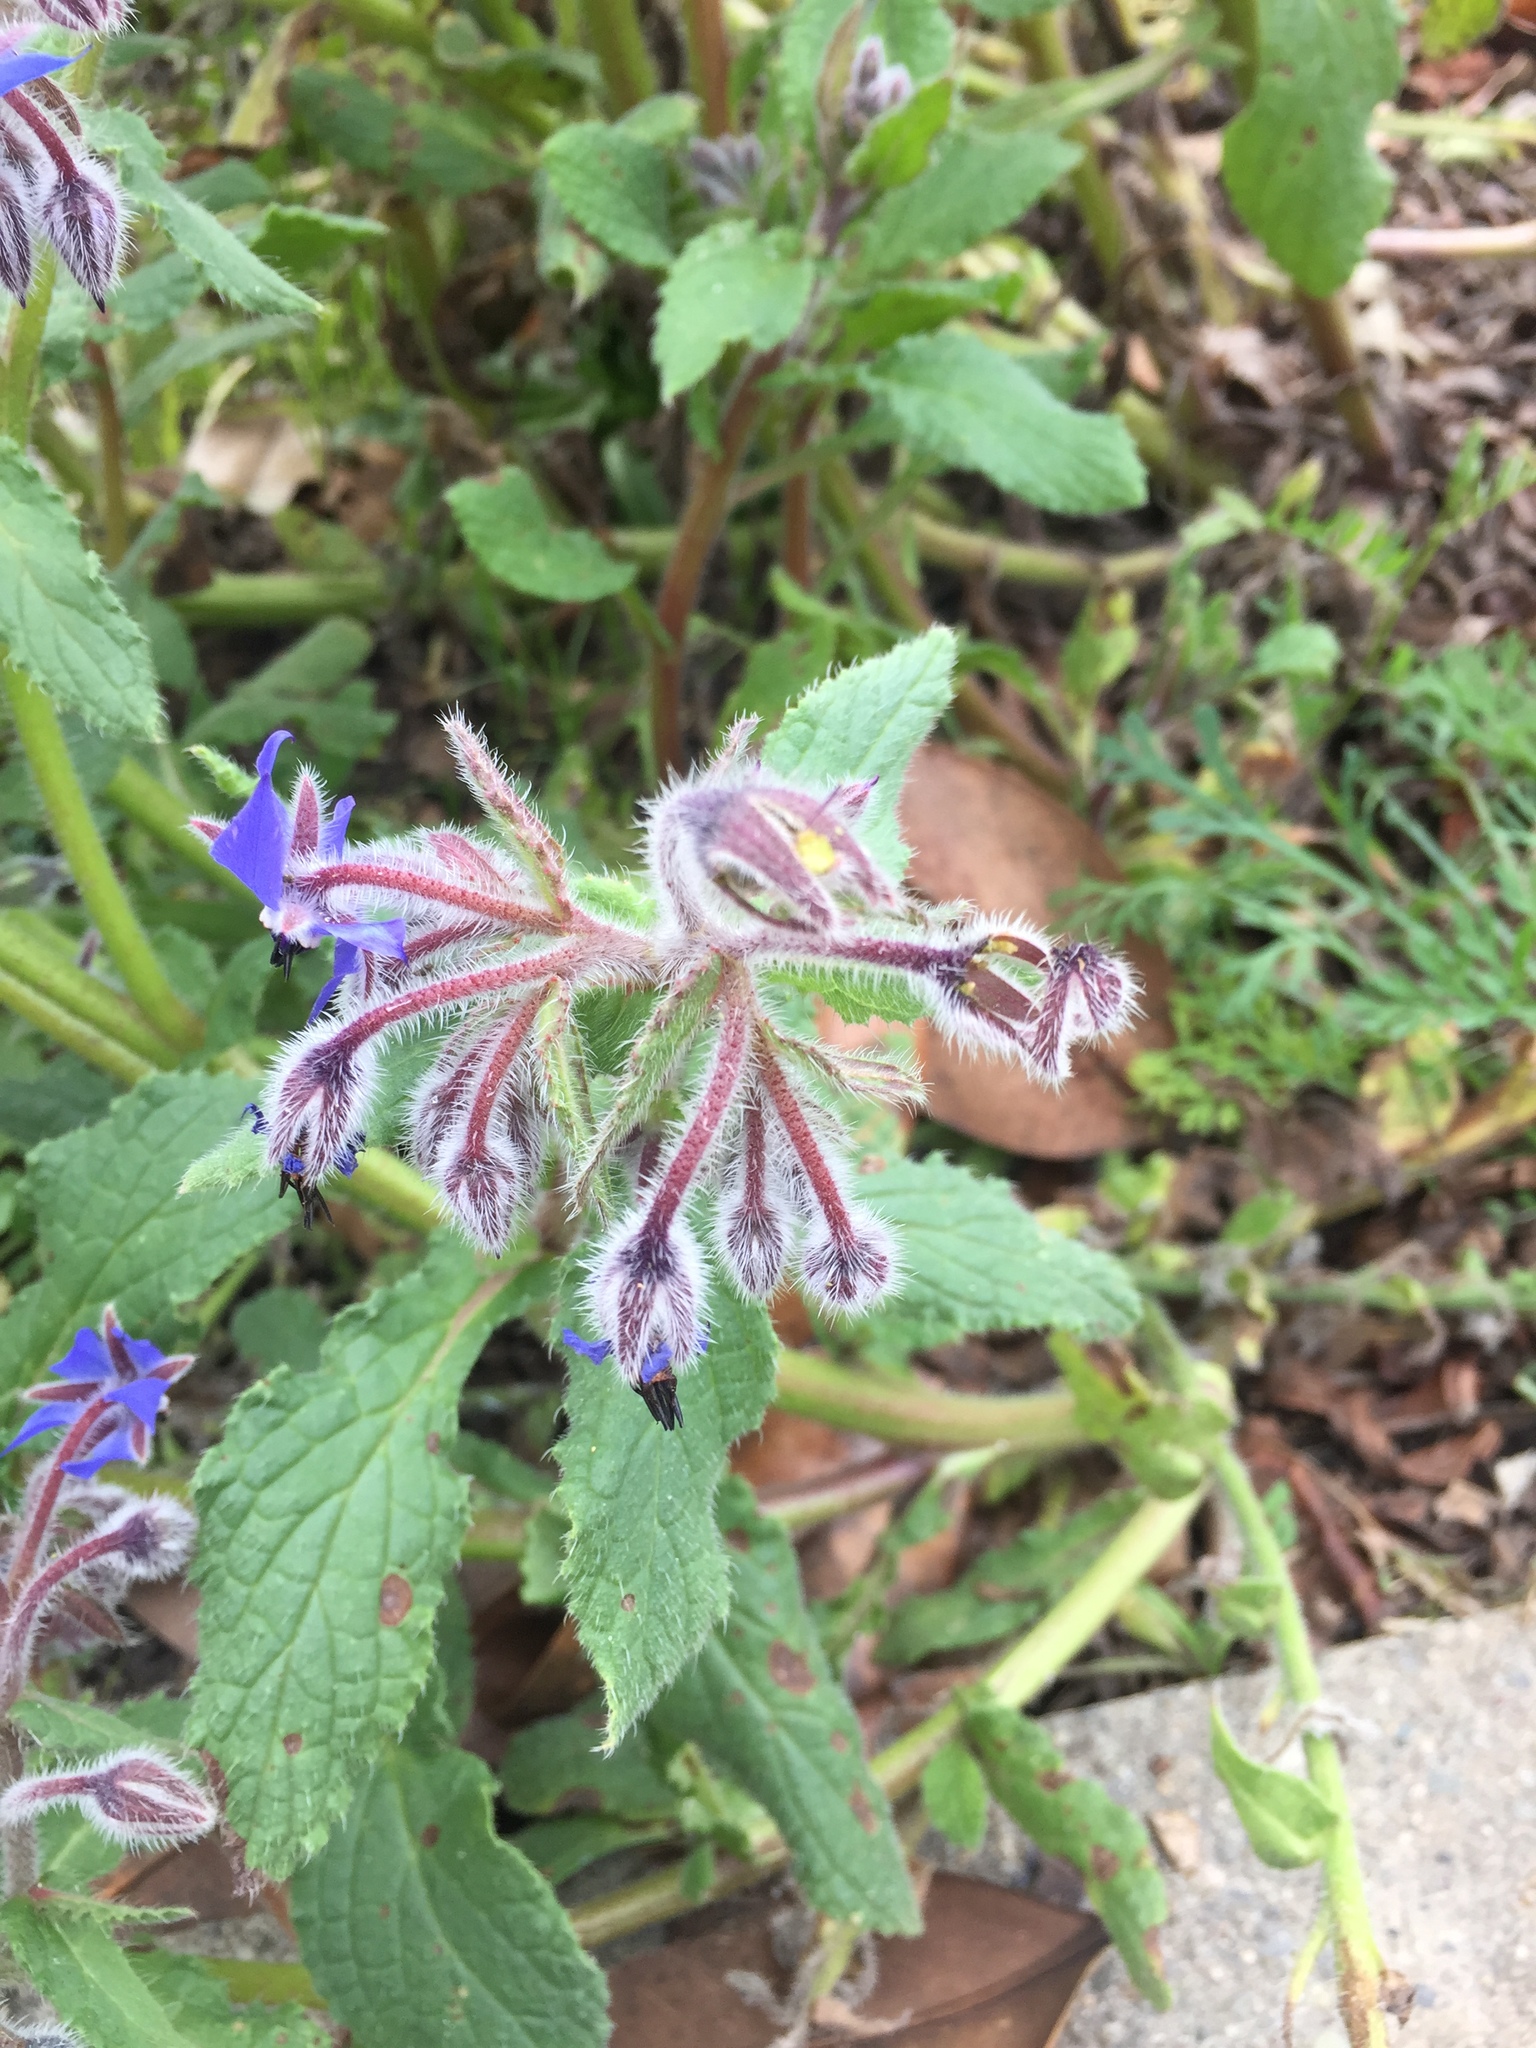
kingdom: Animalia
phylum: Chordata
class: Mammalia
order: Rodentia
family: Sciuridae
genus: Sciurus
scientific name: Sciurus niger
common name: Fox squirrel
